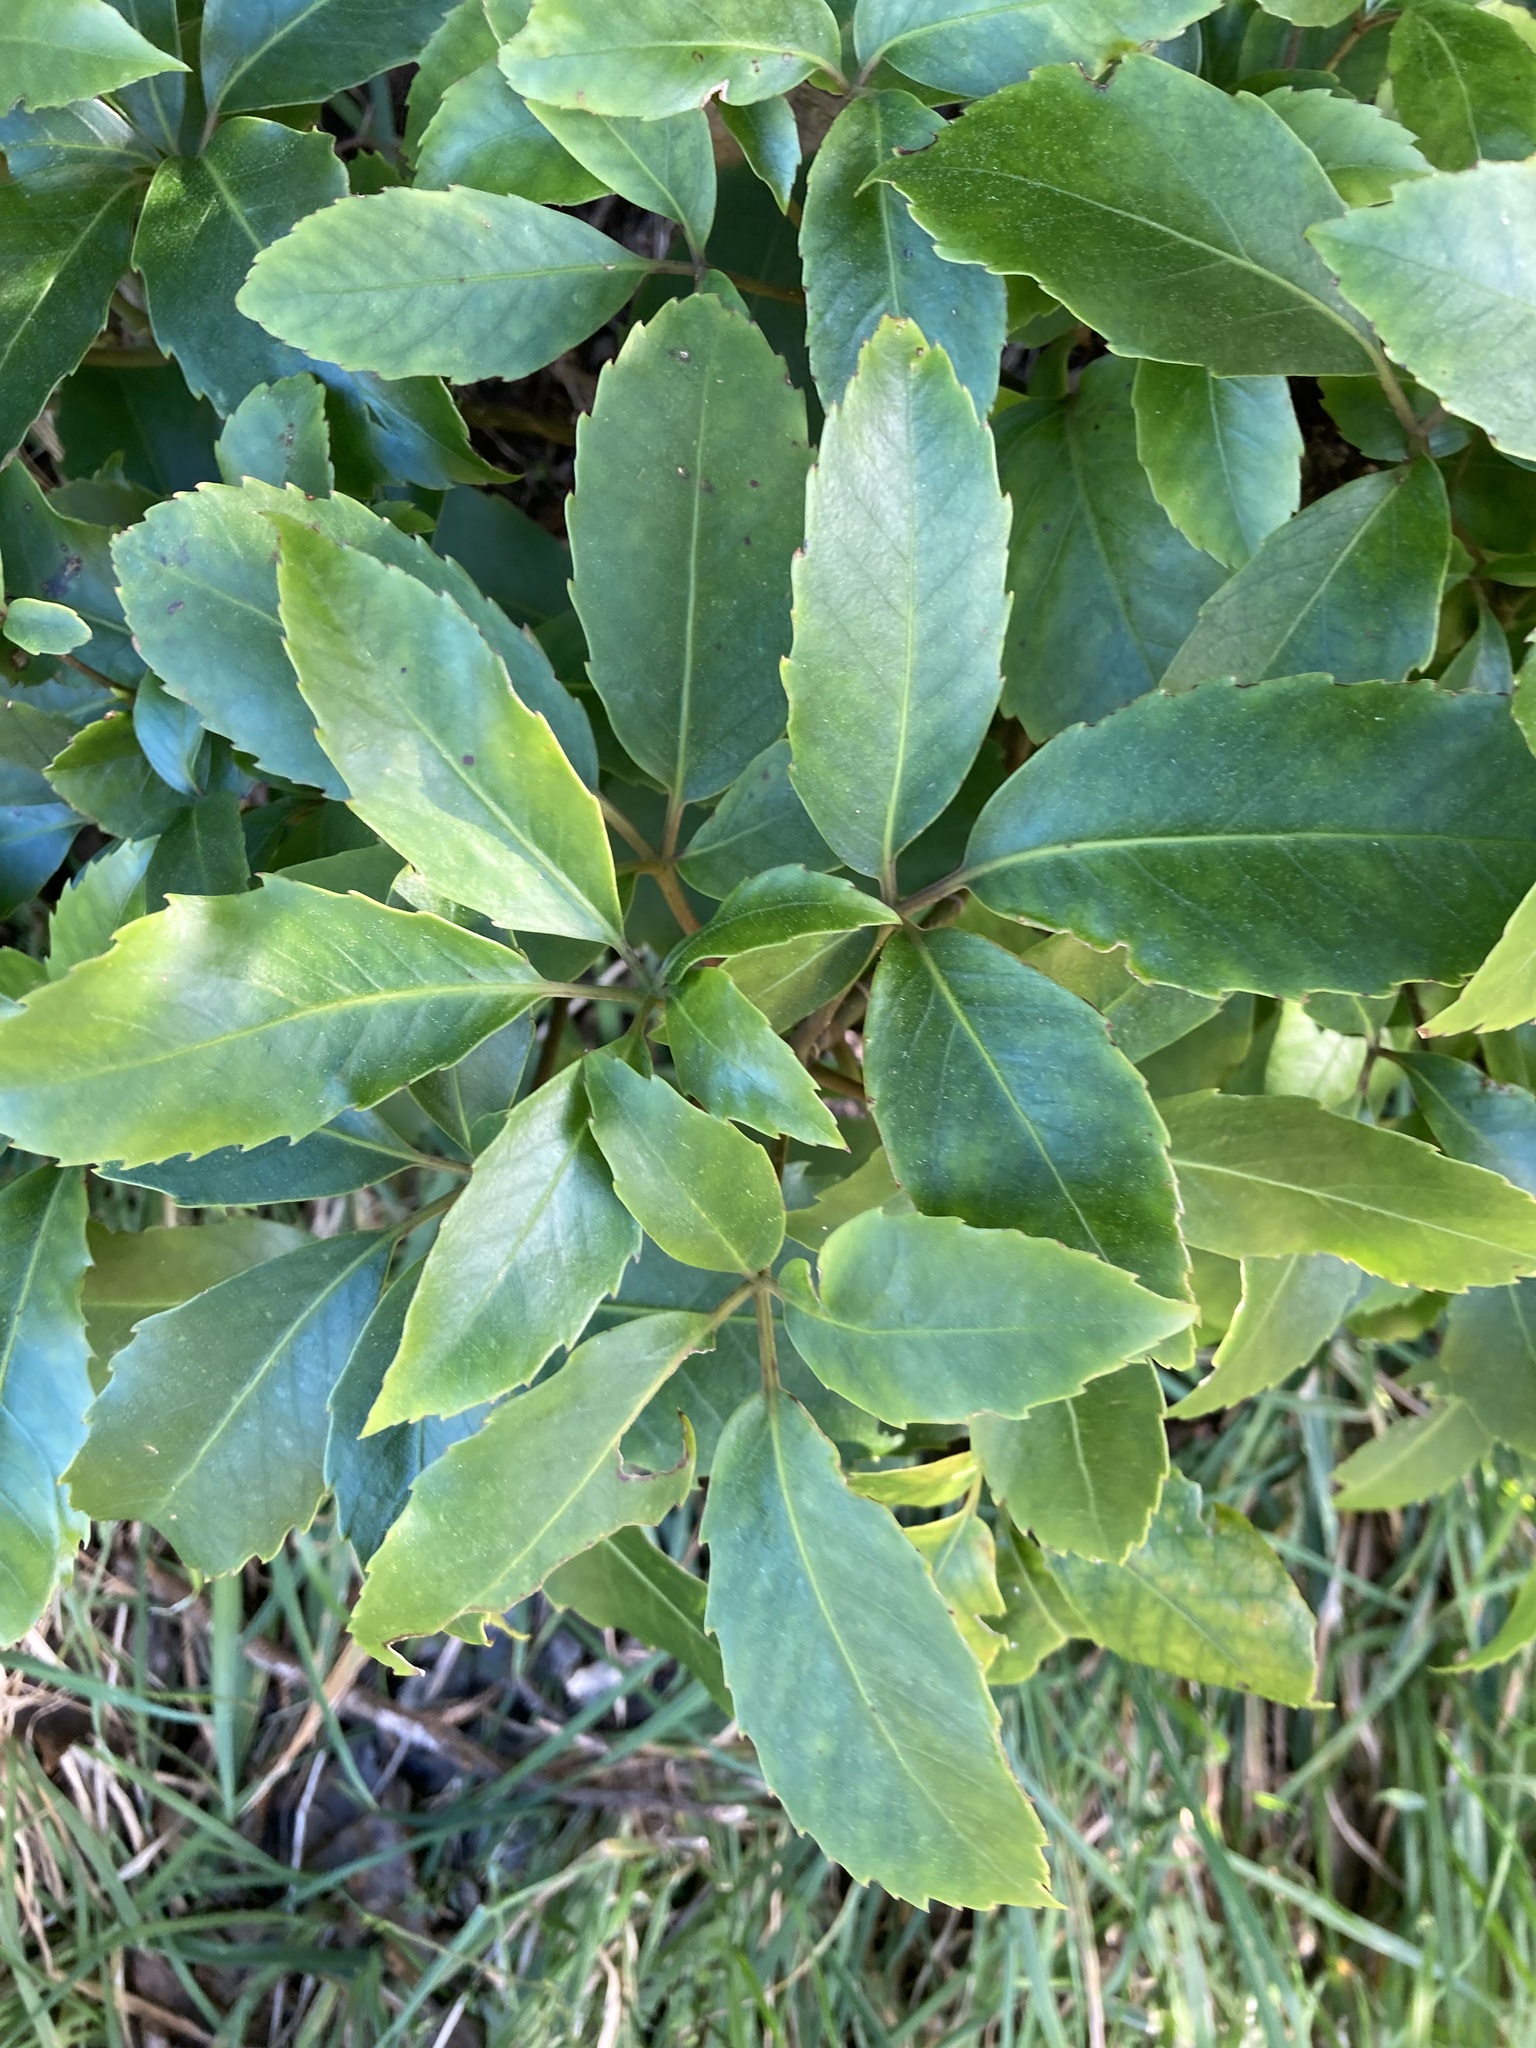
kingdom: Plantae
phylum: Tracheophyta
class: Magnoliopsida
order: Apiales
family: Araliaceae
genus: Neopanax
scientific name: Neopanax arboreus
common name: Five-fingers
